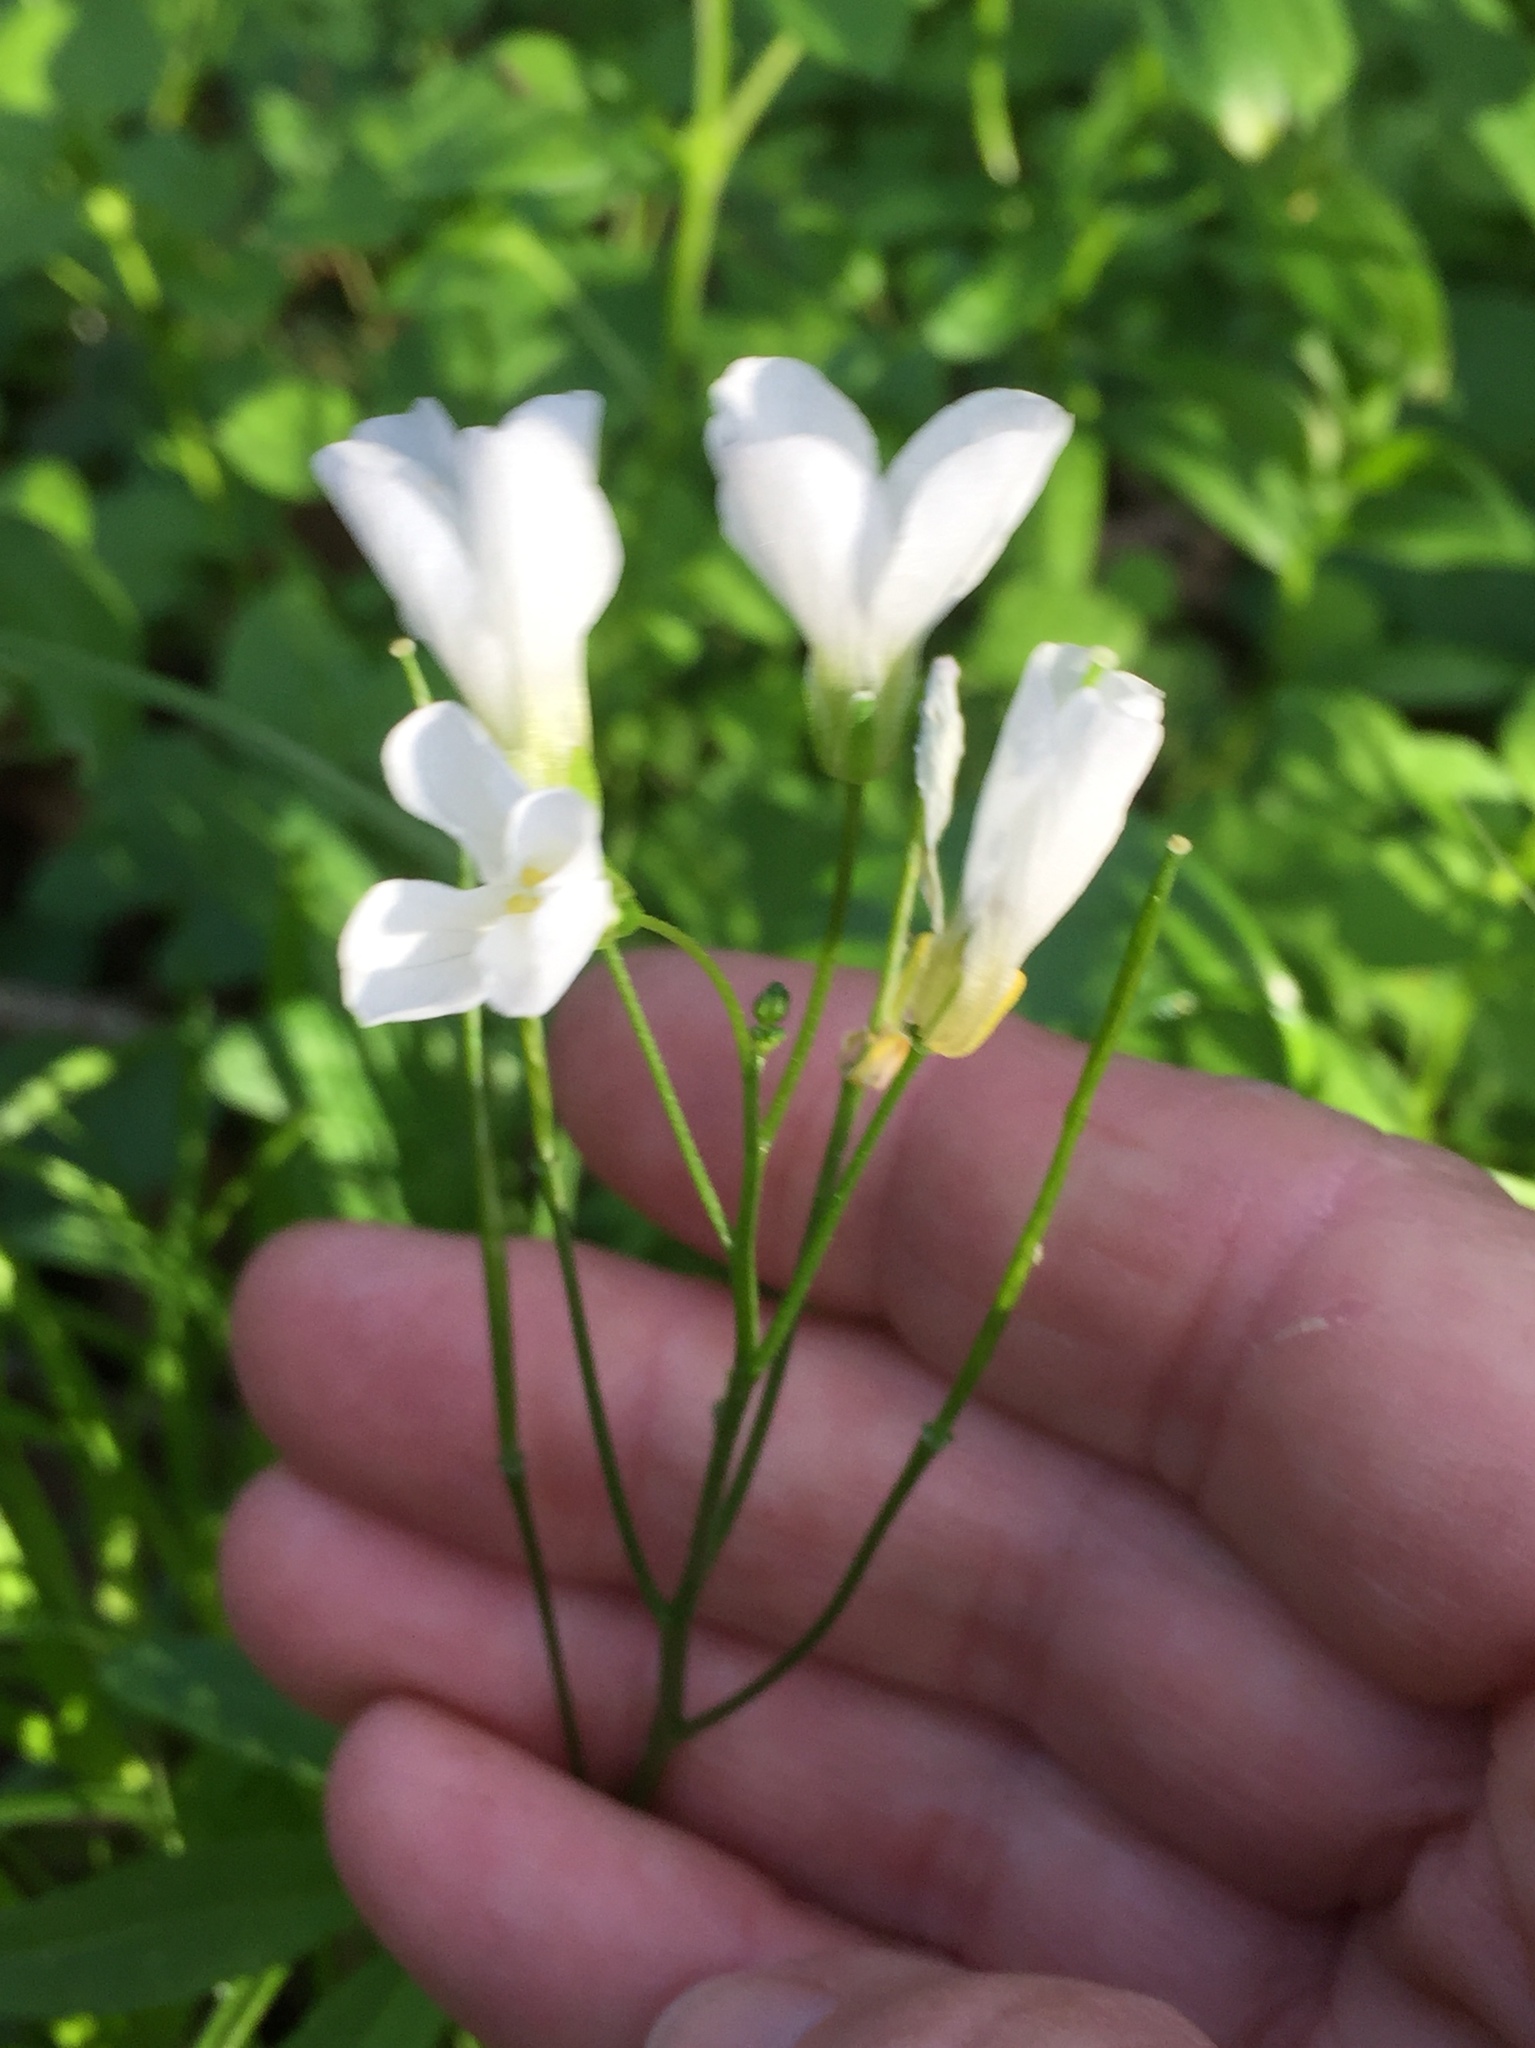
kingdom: Plantae
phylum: Tracheophyta
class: Magnoliopsida
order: Brassicales
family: Brassicaceae
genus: Cardamine
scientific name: Cardamine californica
